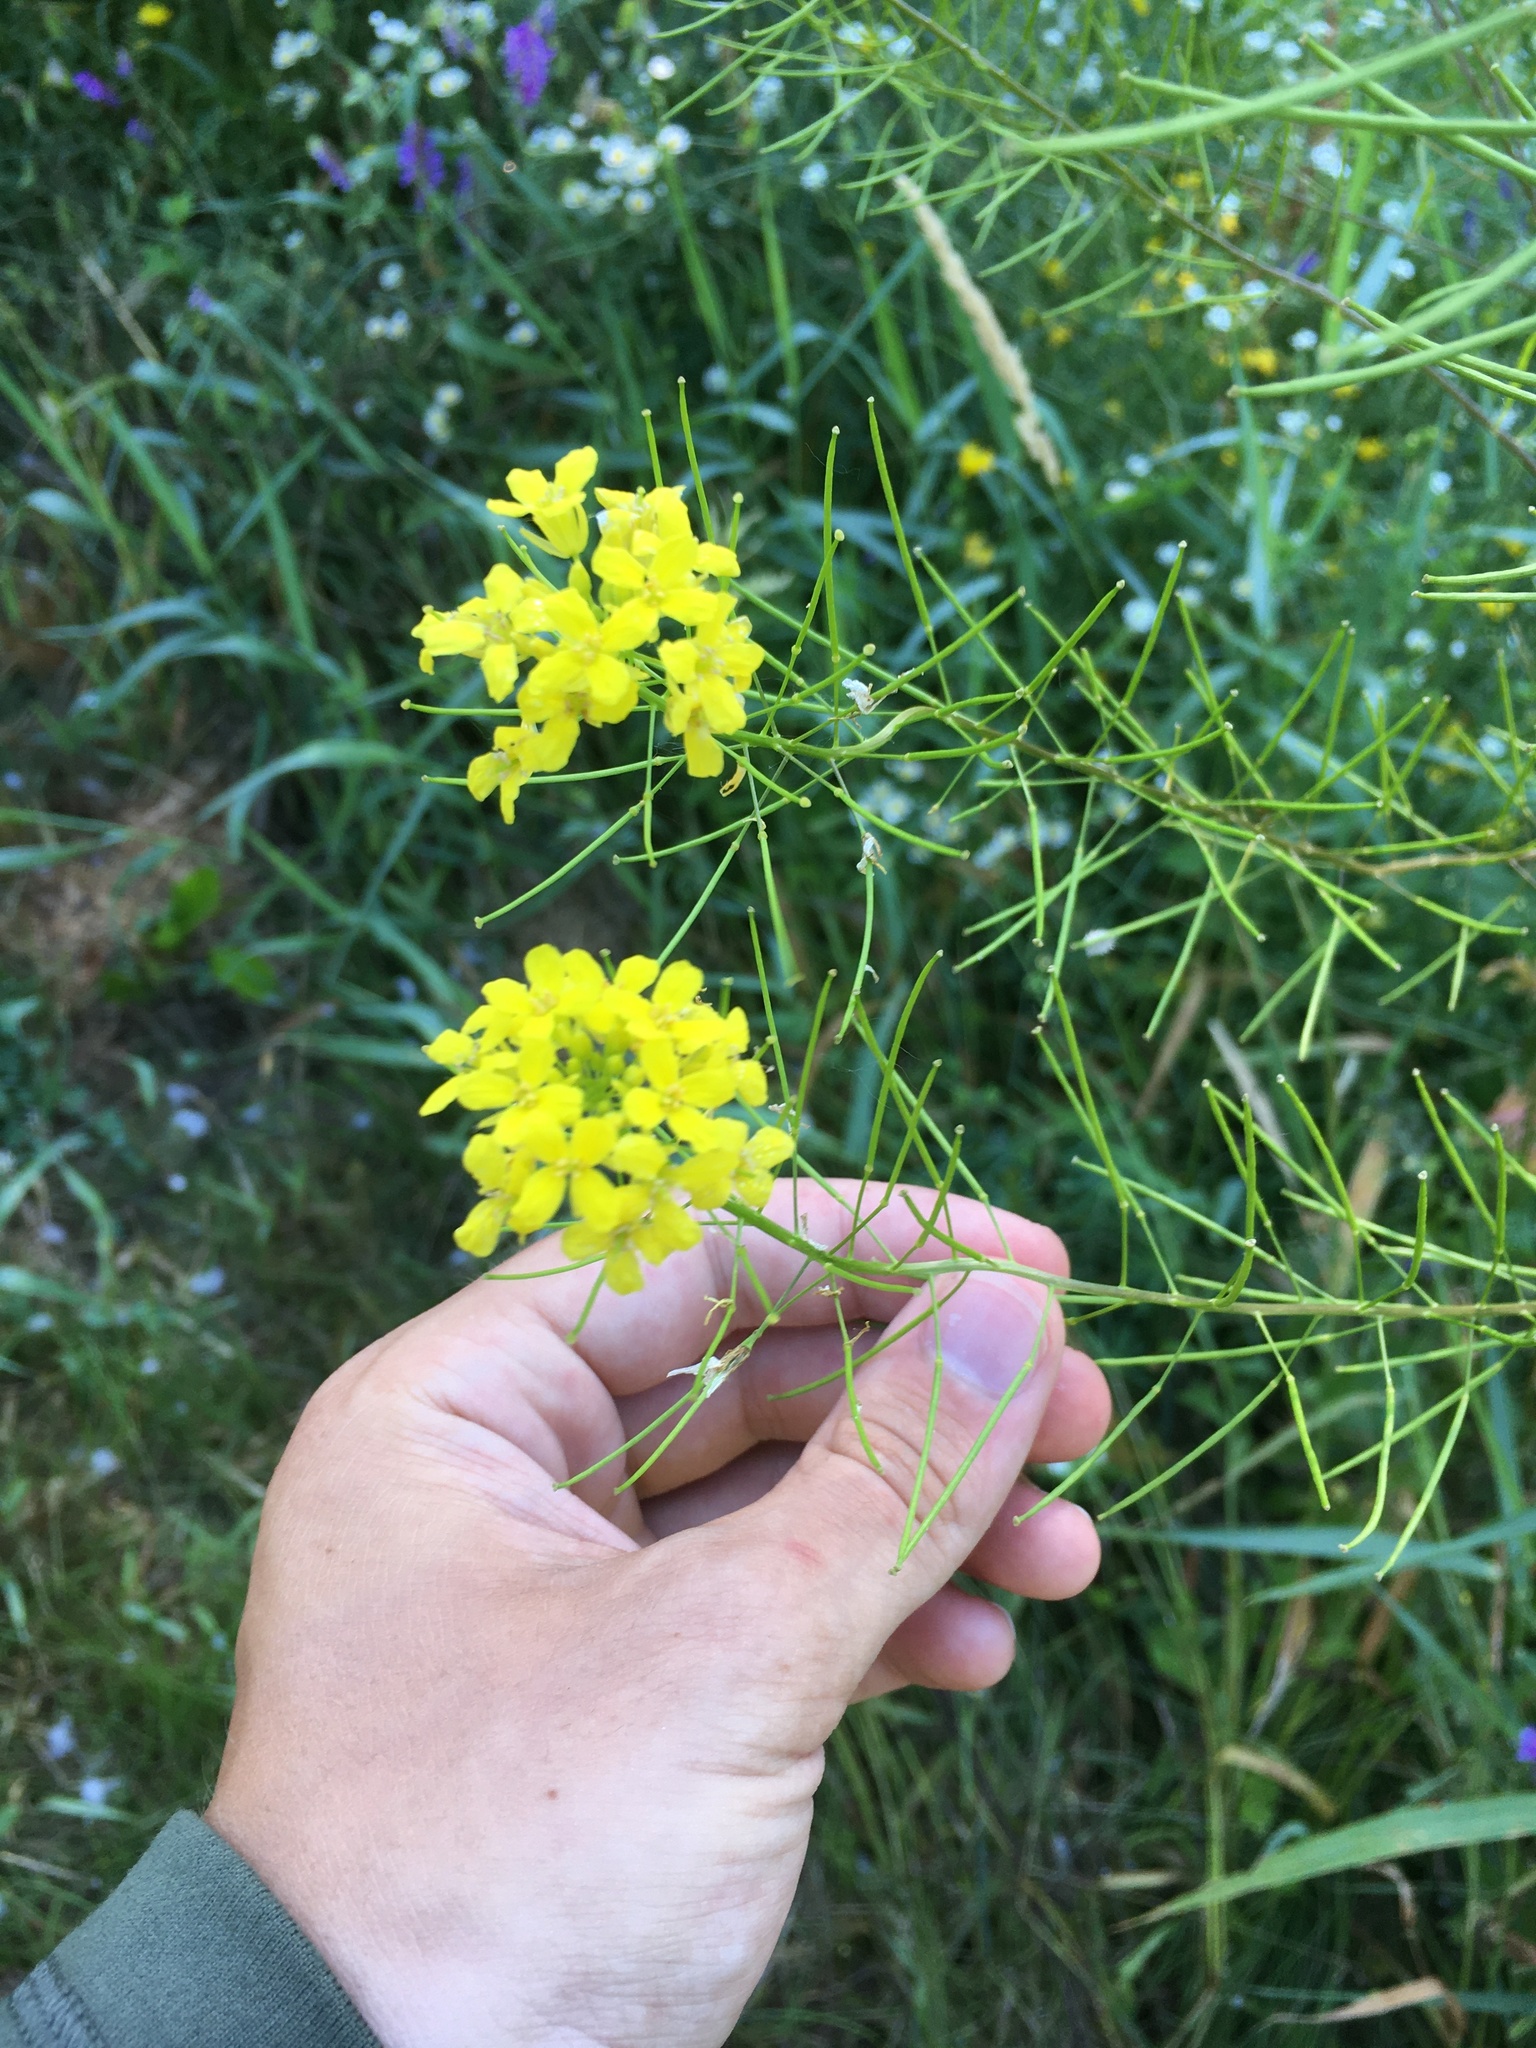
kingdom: Plantae
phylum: Tracheophyta
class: Magnoliopsida
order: Brassicales
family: Brassicaceae
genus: Sisymbrium
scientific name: Sisymbrium loeselii
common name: False london-rocket
